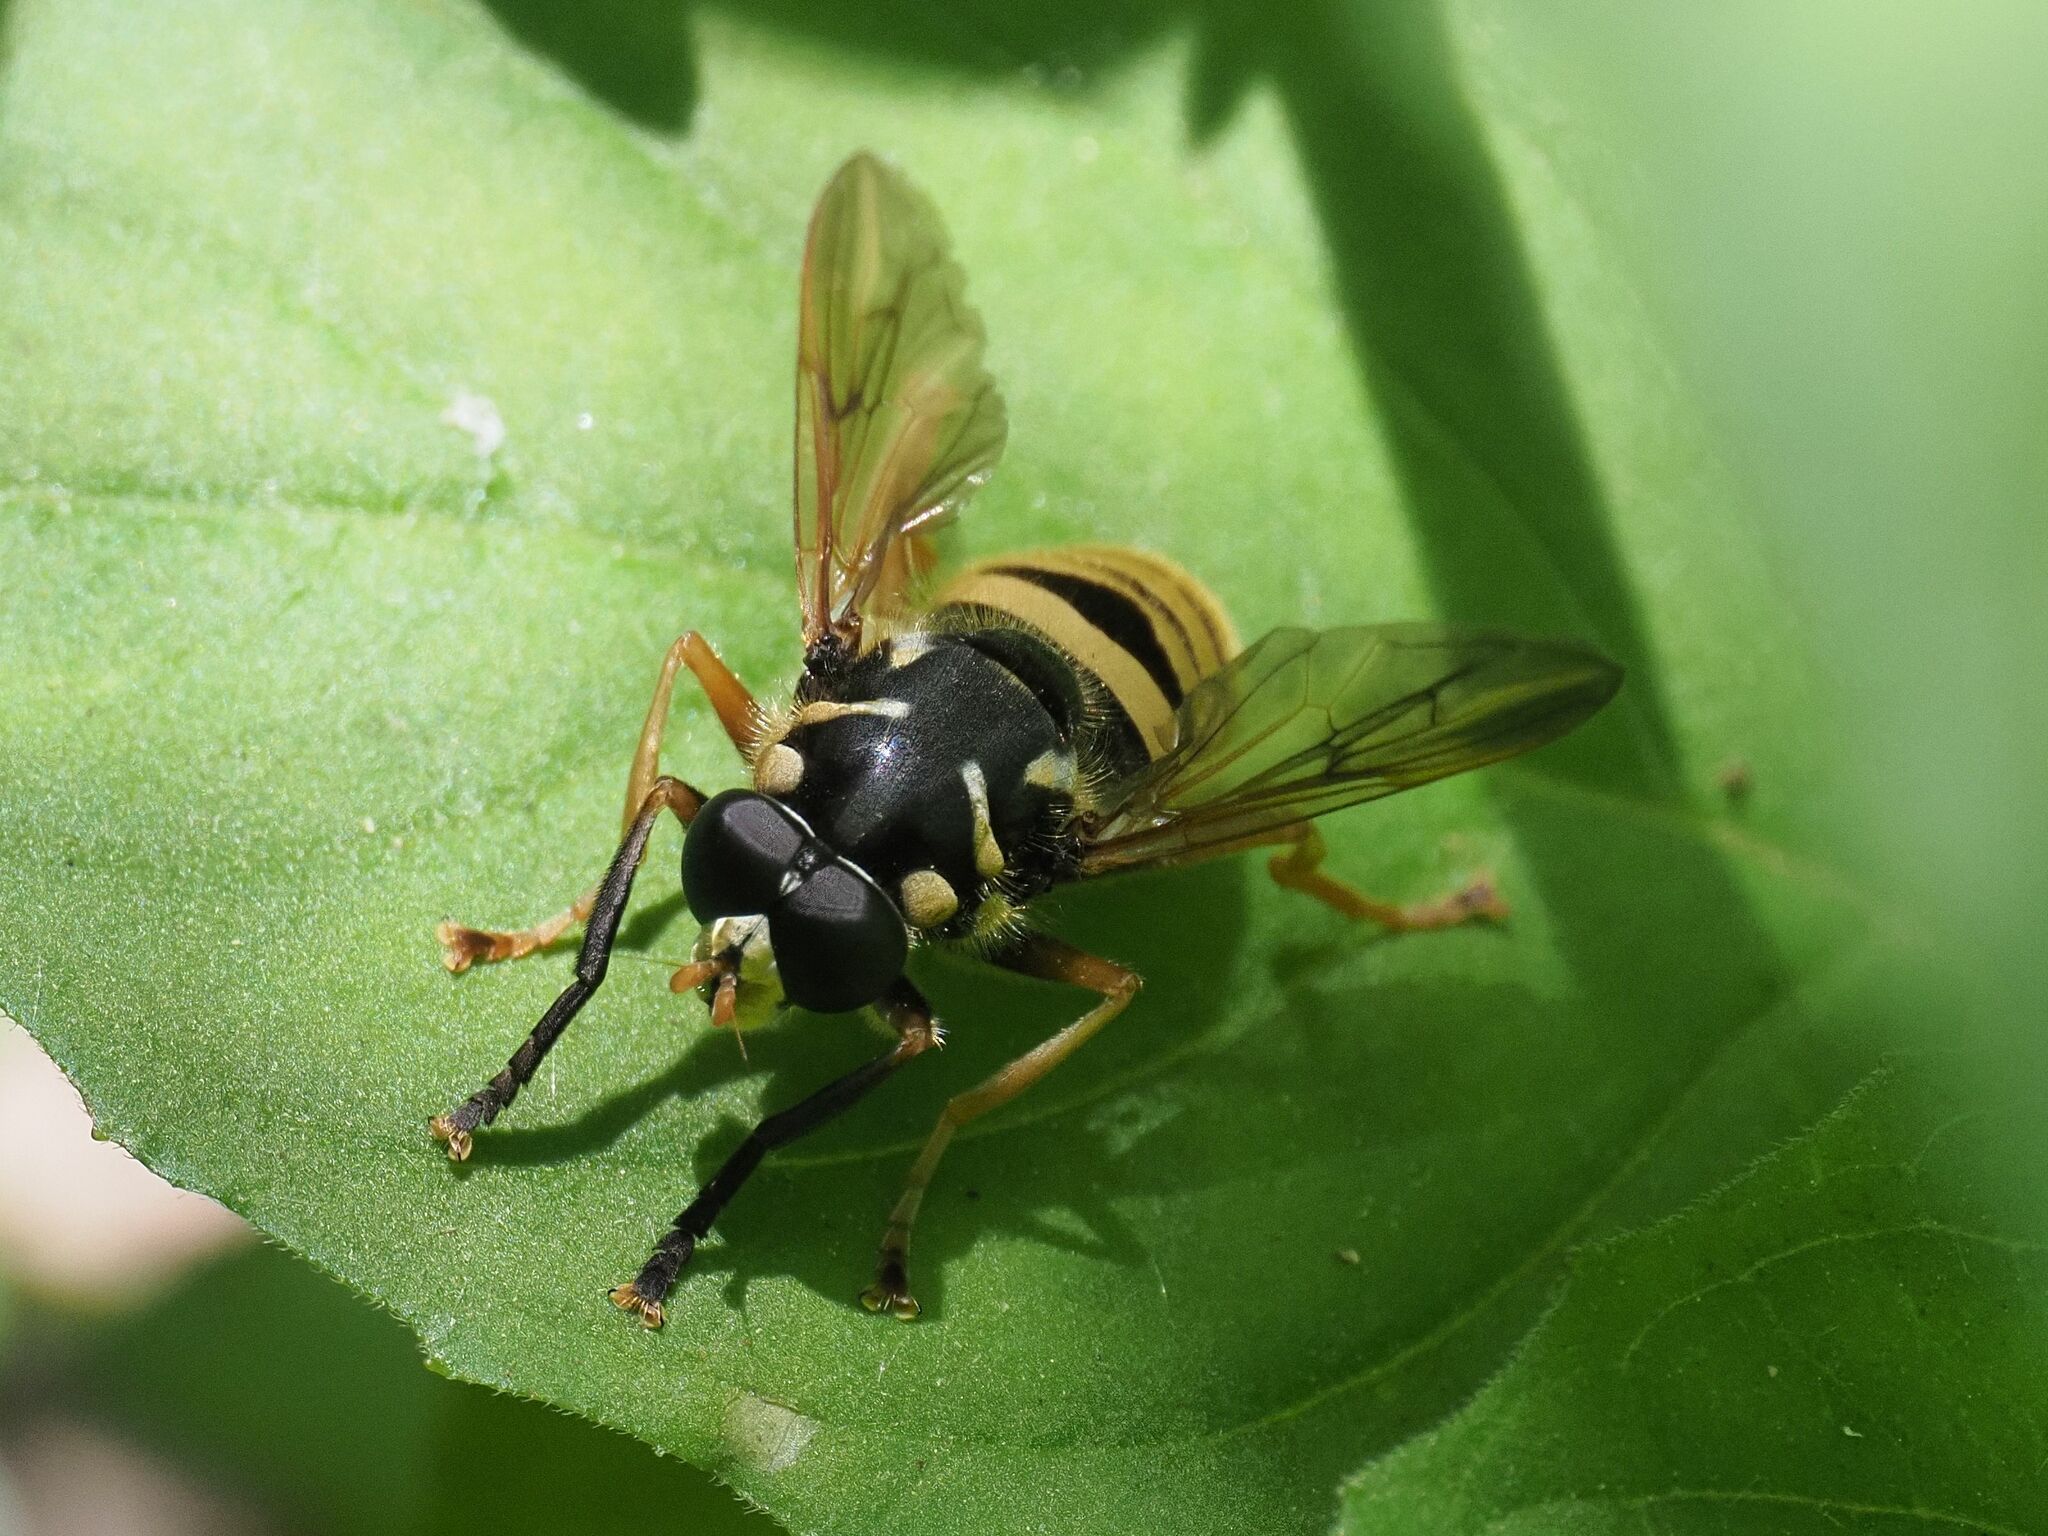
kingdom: Animalia
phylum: Arthropoda
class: Insecta
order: Diptera
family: Syrphidae
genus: Temnostoma
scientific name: Temnostoma vespiforme
